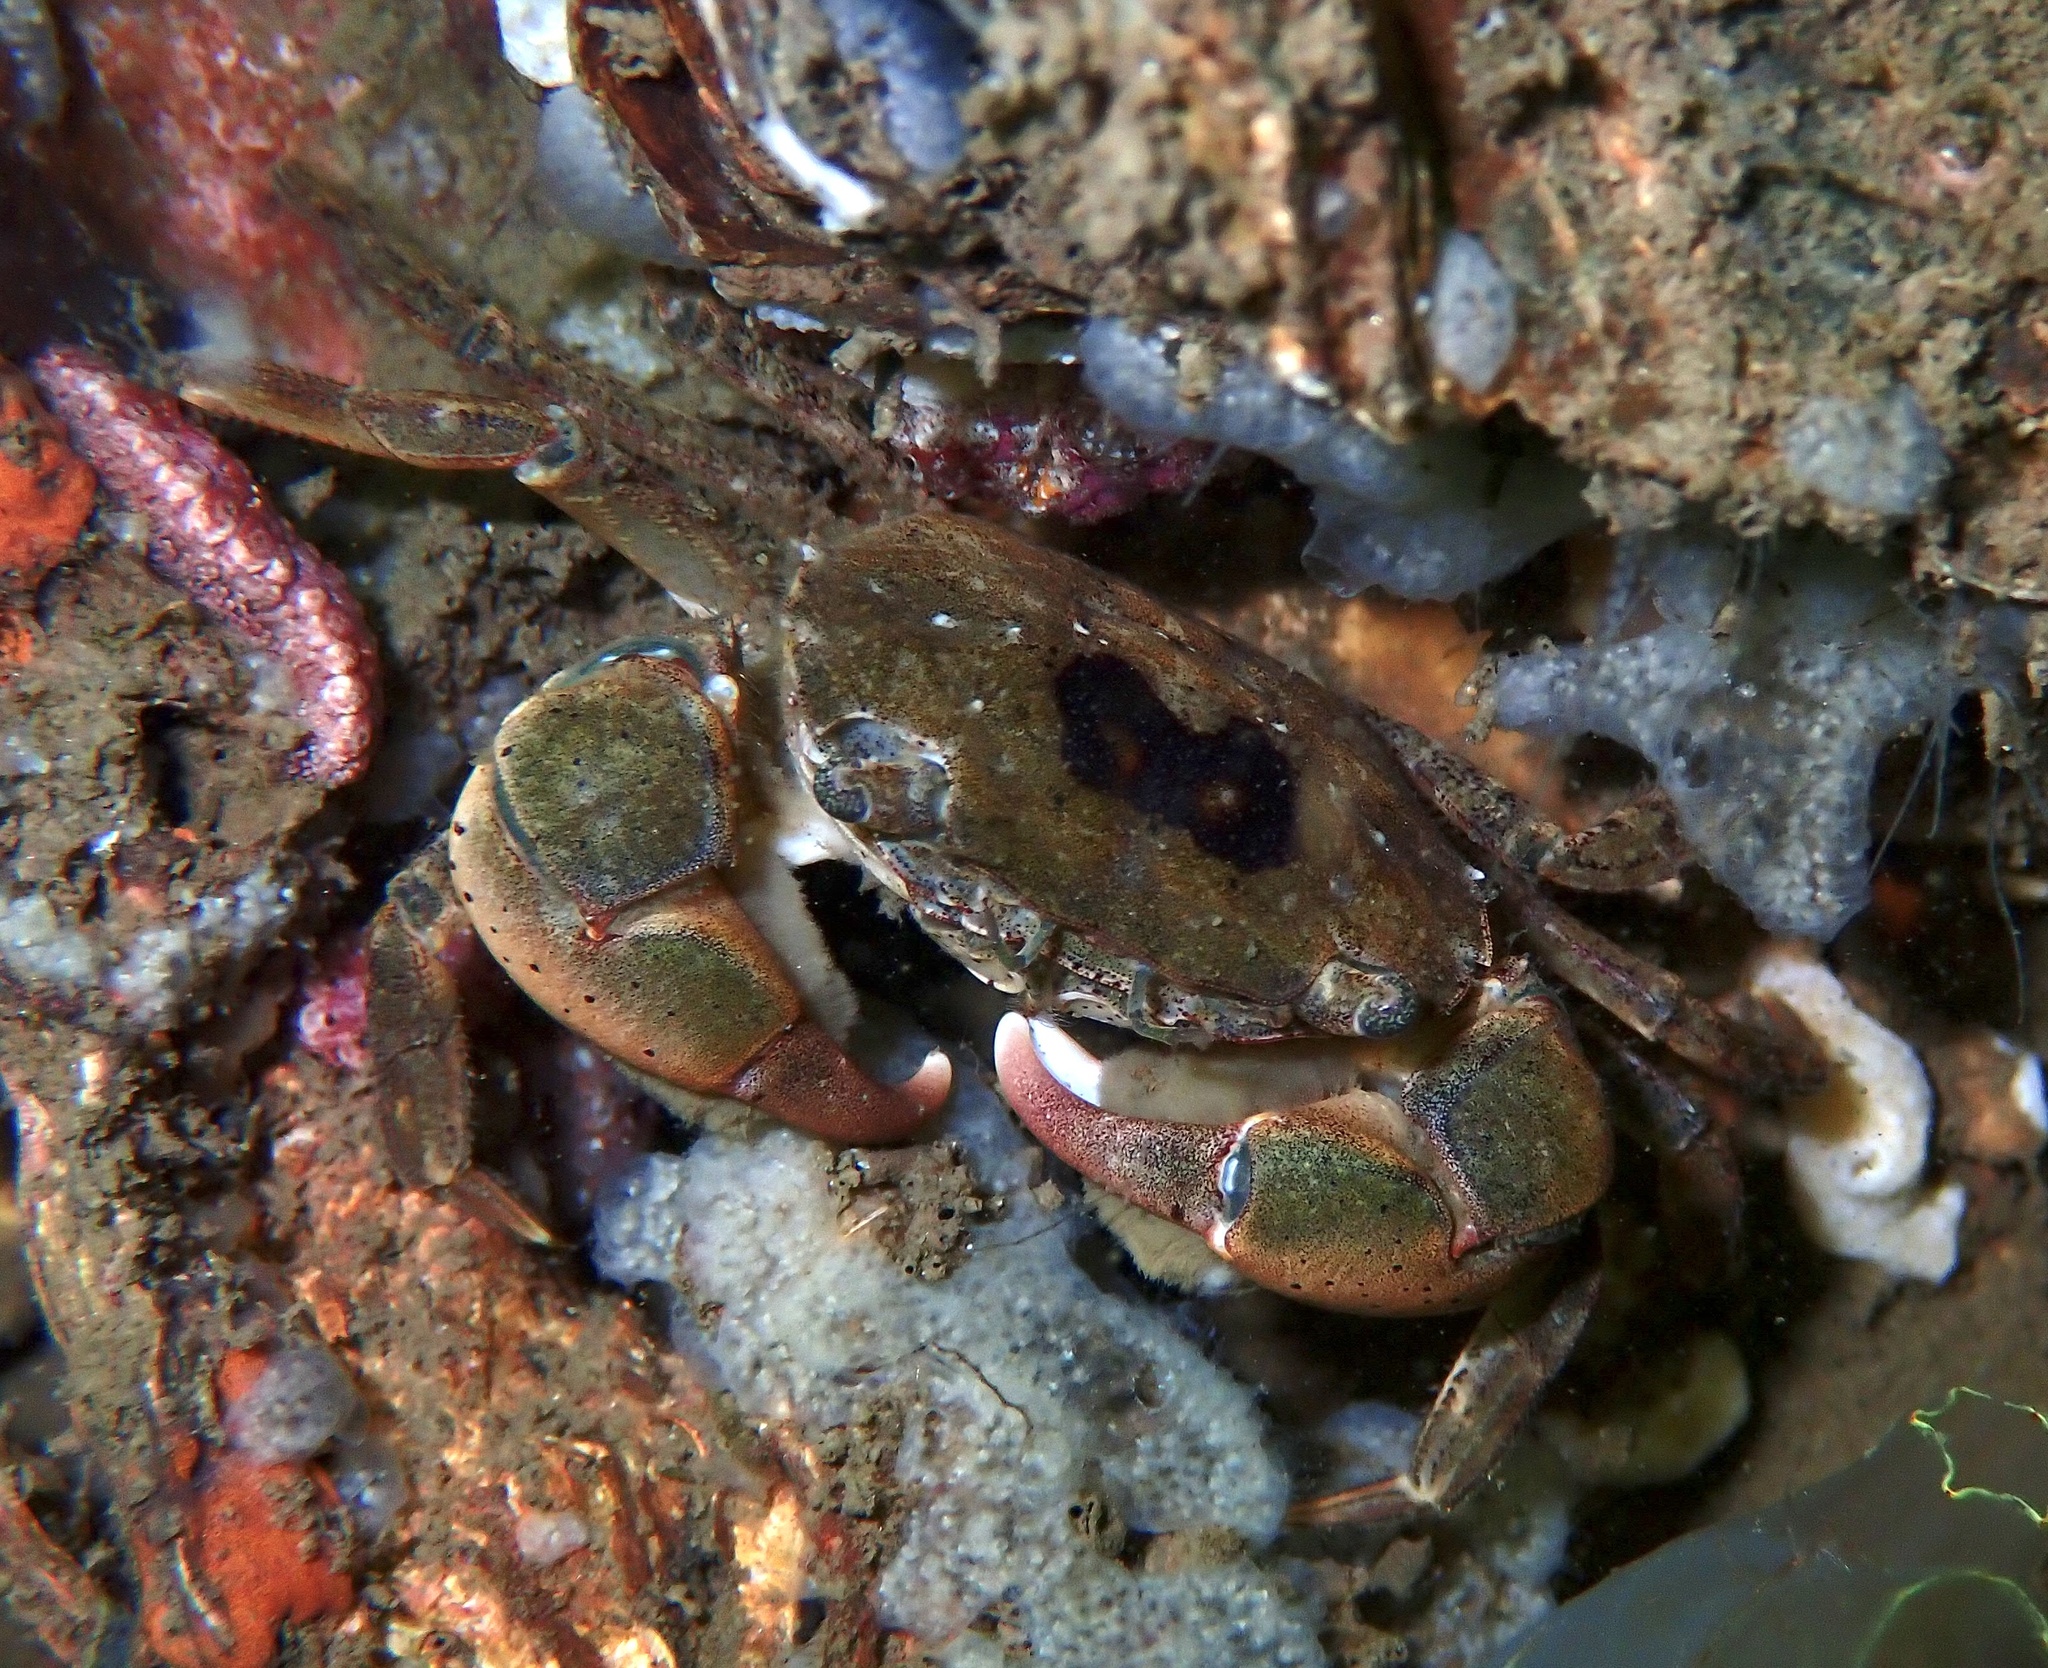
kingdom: Animalia
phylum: Arthropoda
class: Malacostraca
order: Decapoda
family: Varunidae
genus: Hemigrapsus
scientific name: Hemigrapsus takanoi
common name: Asian brush crab
